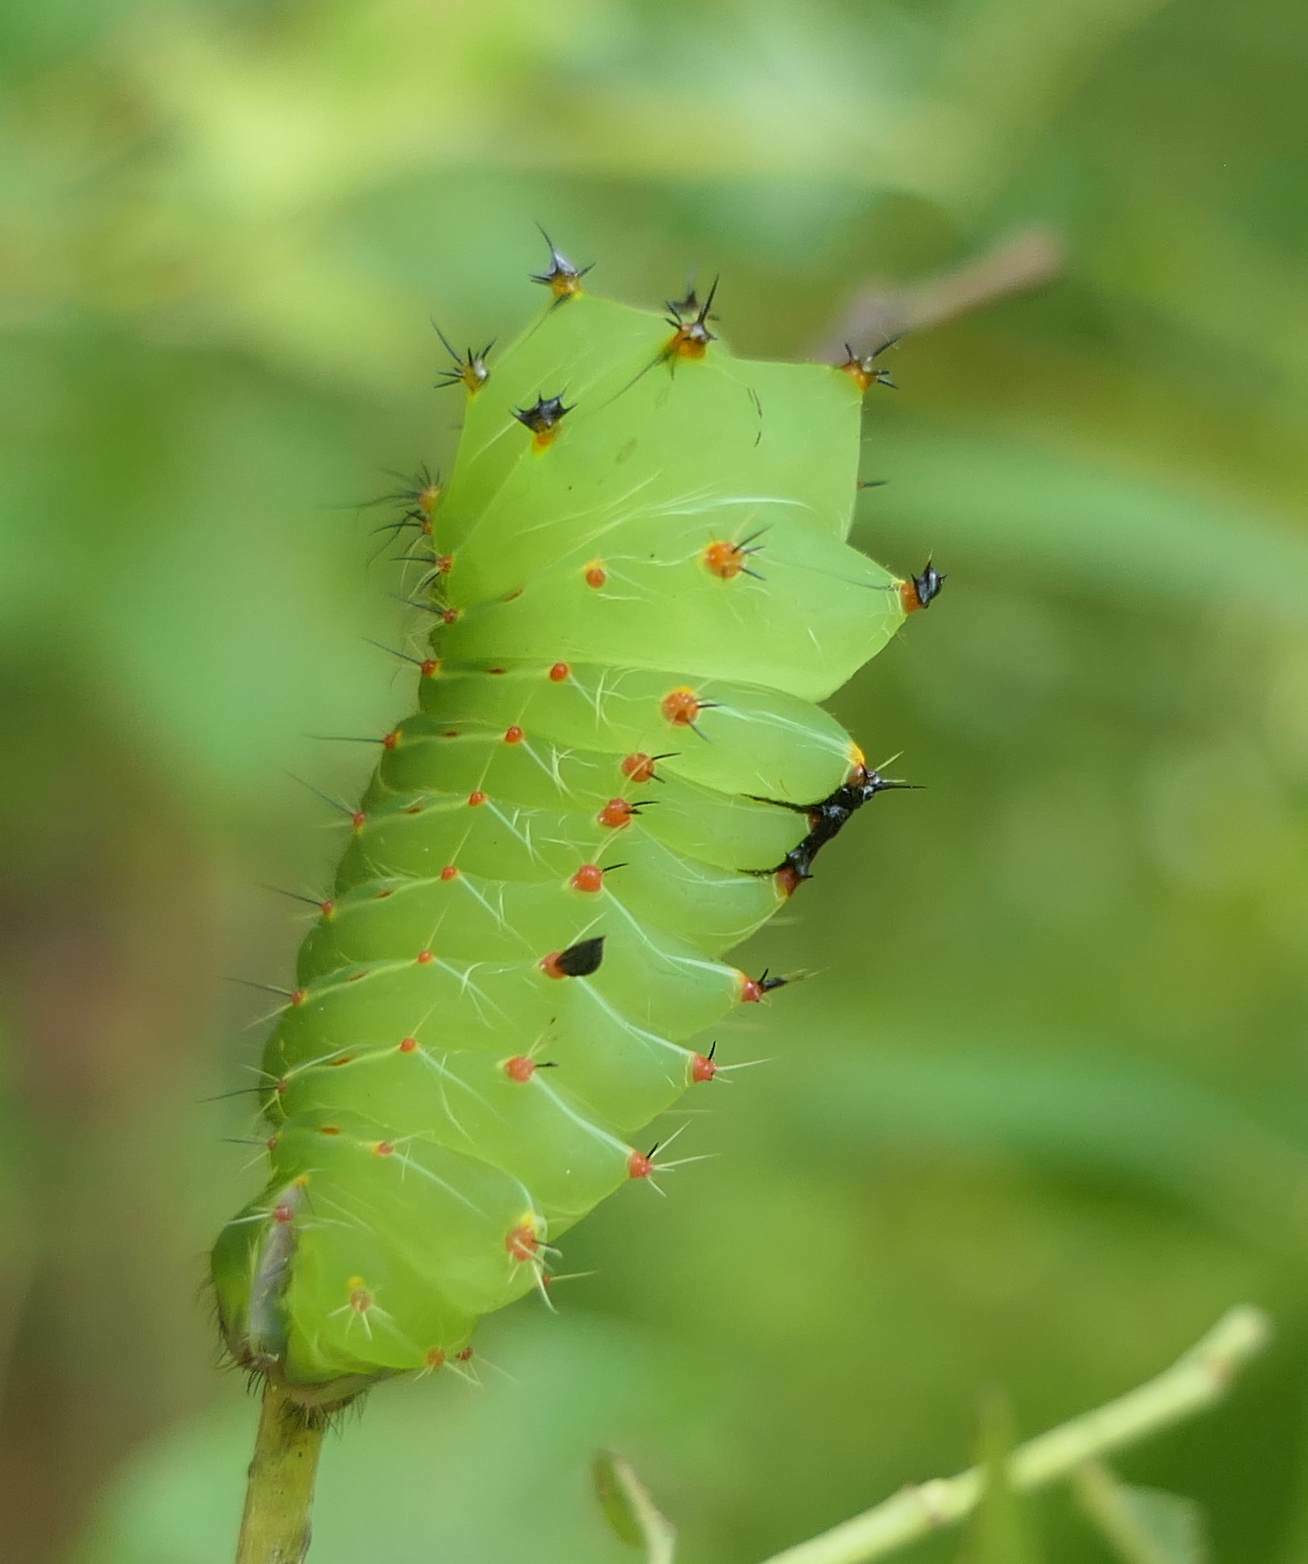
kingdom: Animalia
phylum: Arthropoda
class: Insecta
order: Lepidoptera
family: Saturniidae
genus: Antheraea
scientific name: Antheraea polyphemus
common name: Polyphemus moth
